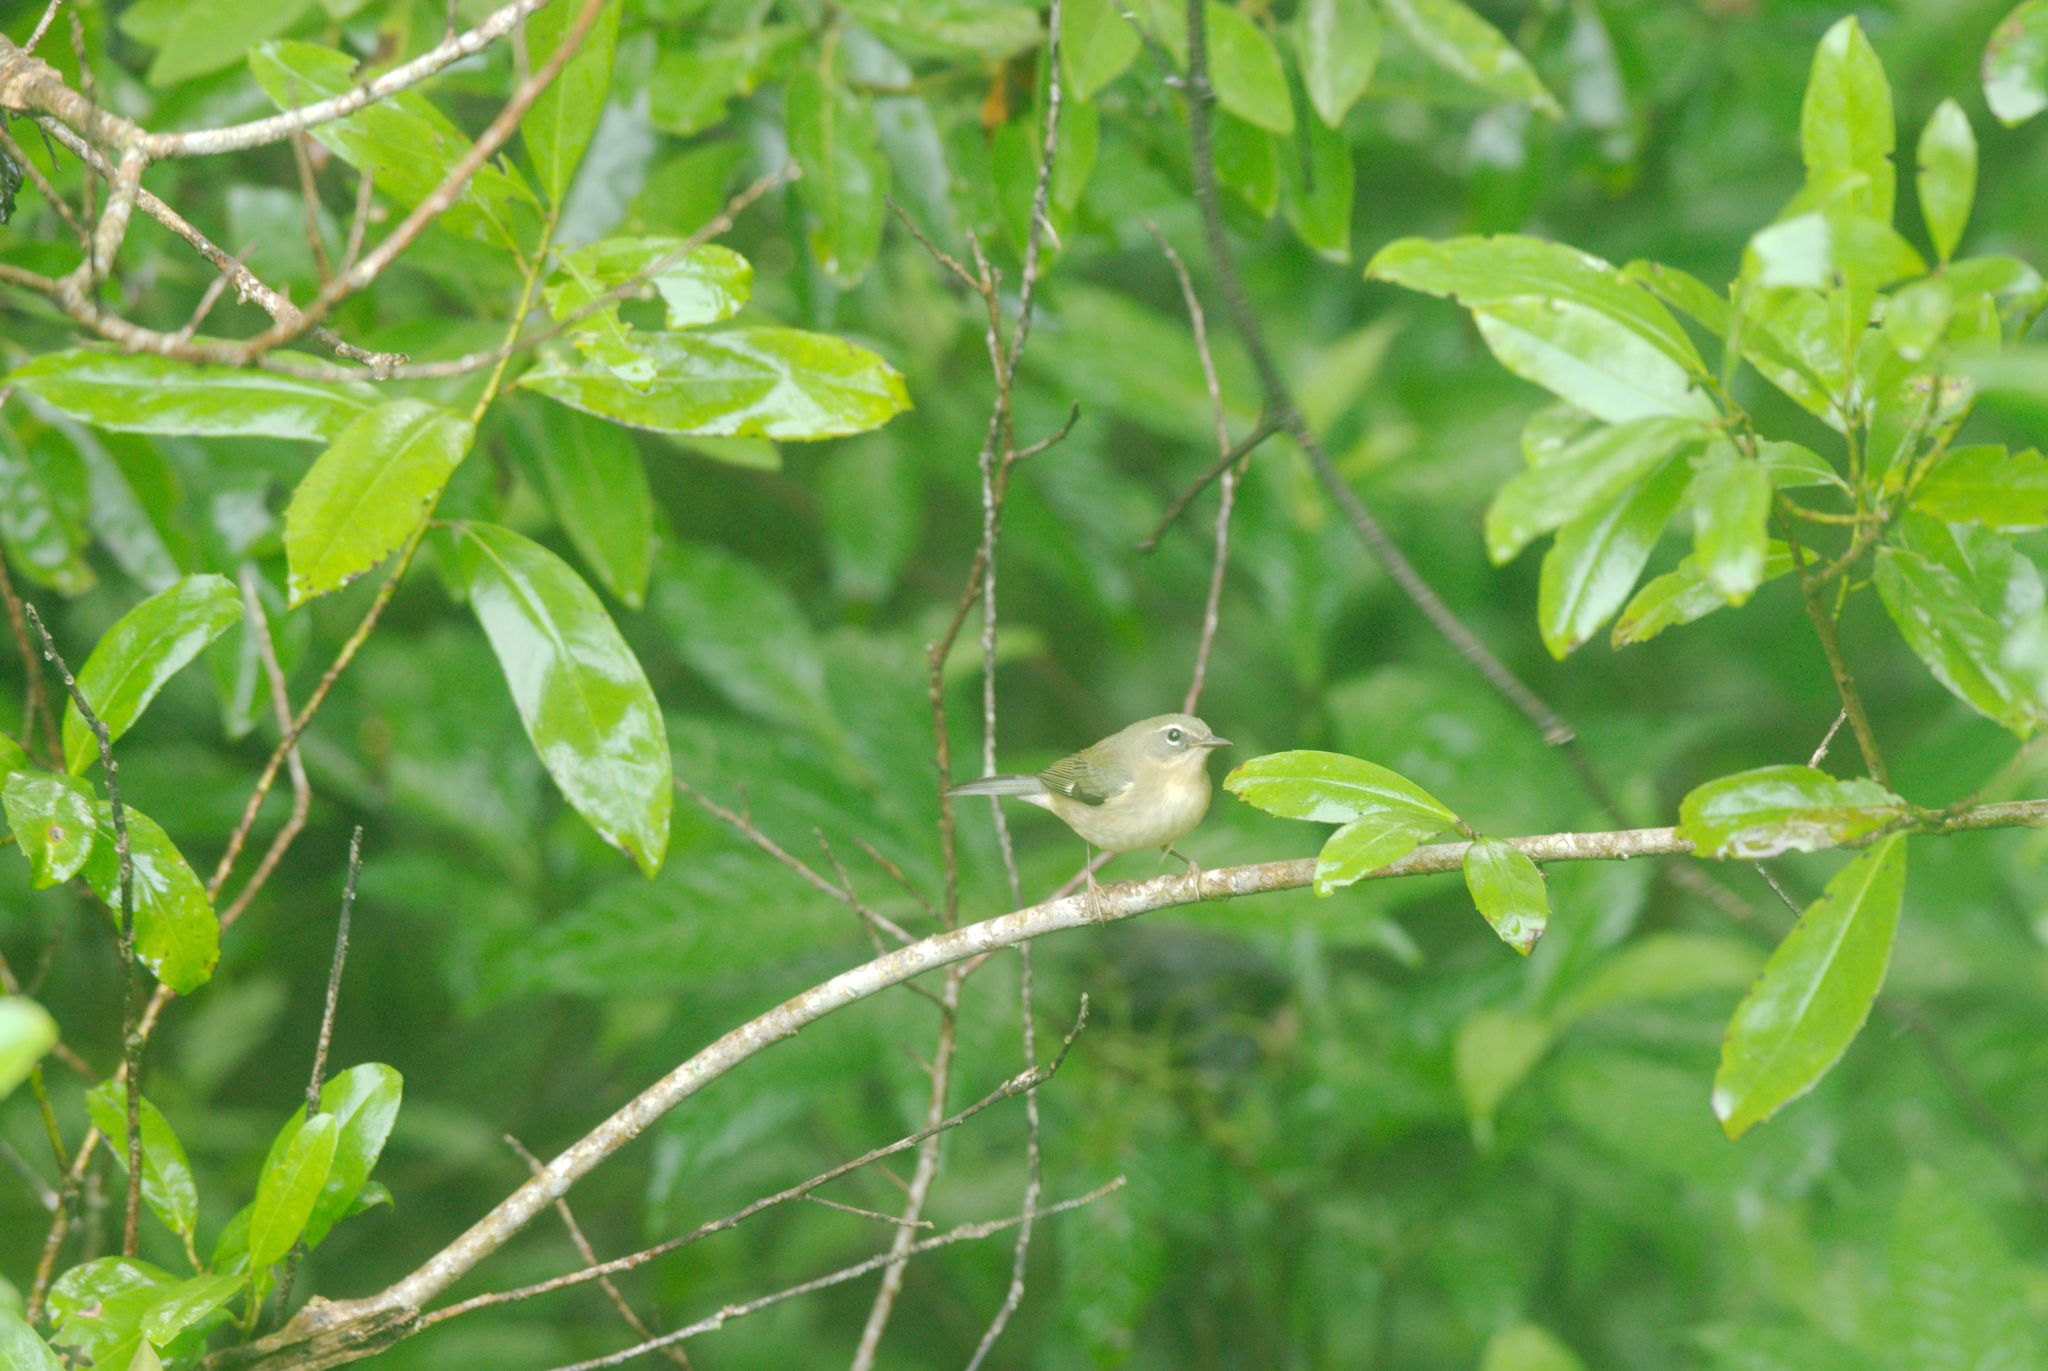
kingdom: Animalia
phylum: Chordata
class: Aves
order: Passeriformes
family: Parulidae
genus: Setophaga
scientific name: Setophaga caerulescens
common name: Black-throated blue warbler
